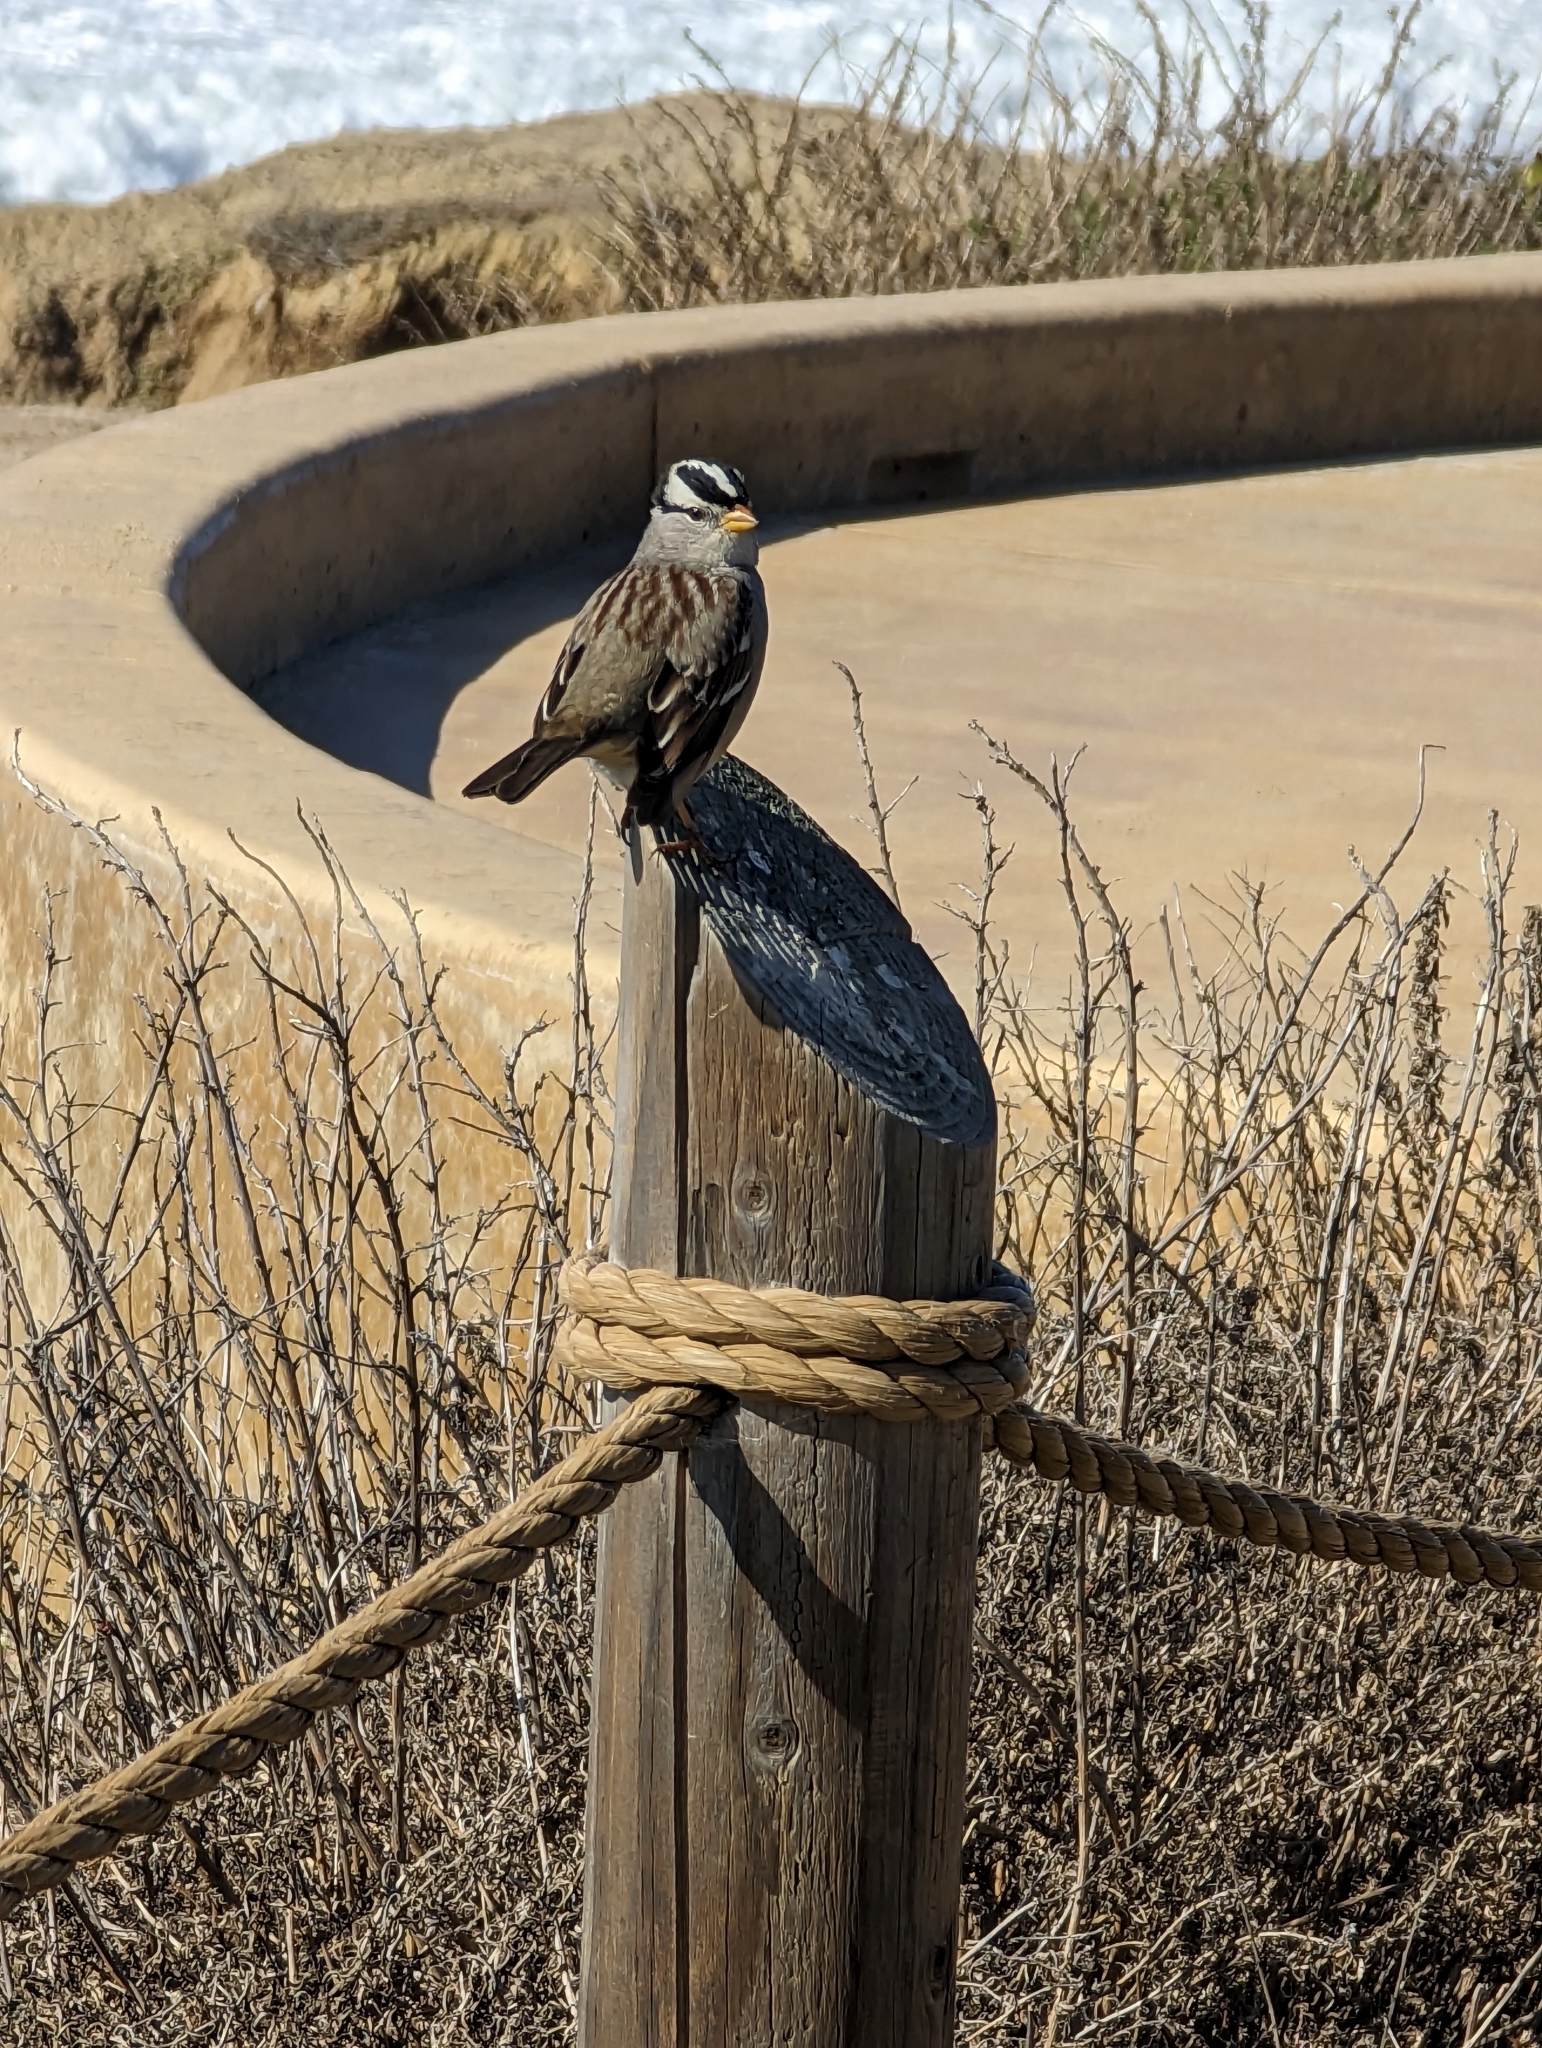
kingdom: Animalia
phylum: Chordata
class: Aves
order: Passeriformes
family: Passerellidae
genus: Zonotrichia
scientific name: Zonotrichia leucophrys
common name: White-crowned sparrow
